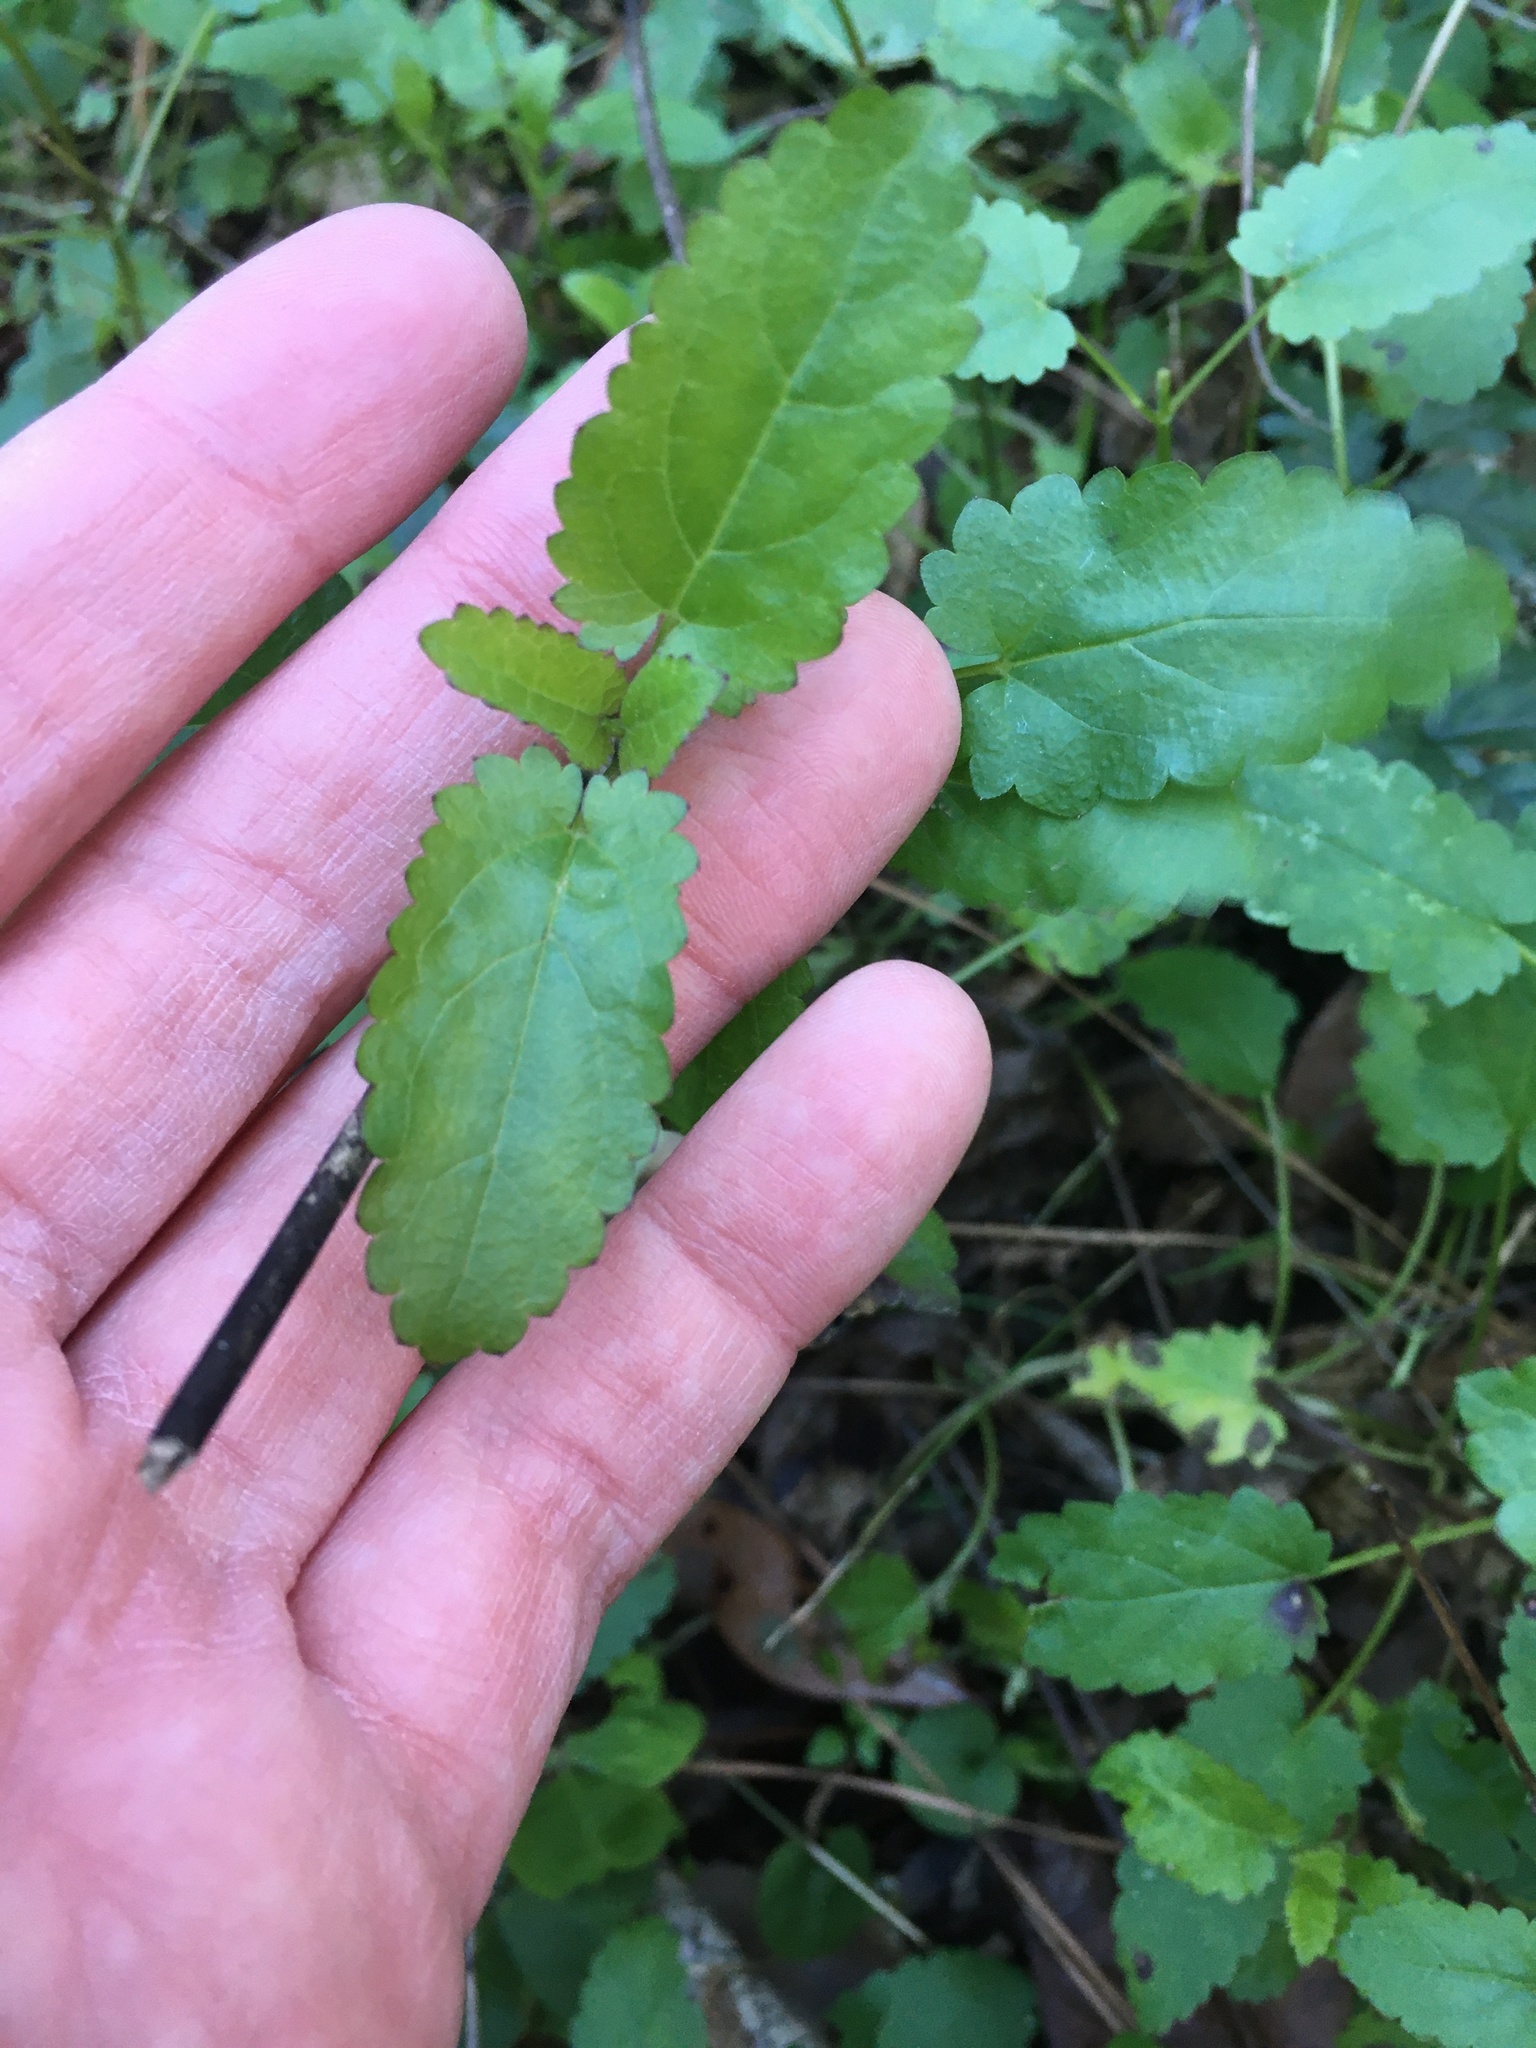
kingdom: Plantae
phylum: Tracheophyta
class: Magnoliopsida
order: Lamiales
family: Lamiaceae
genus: Stachys
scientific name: Stachys floridana
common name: Florida betony
